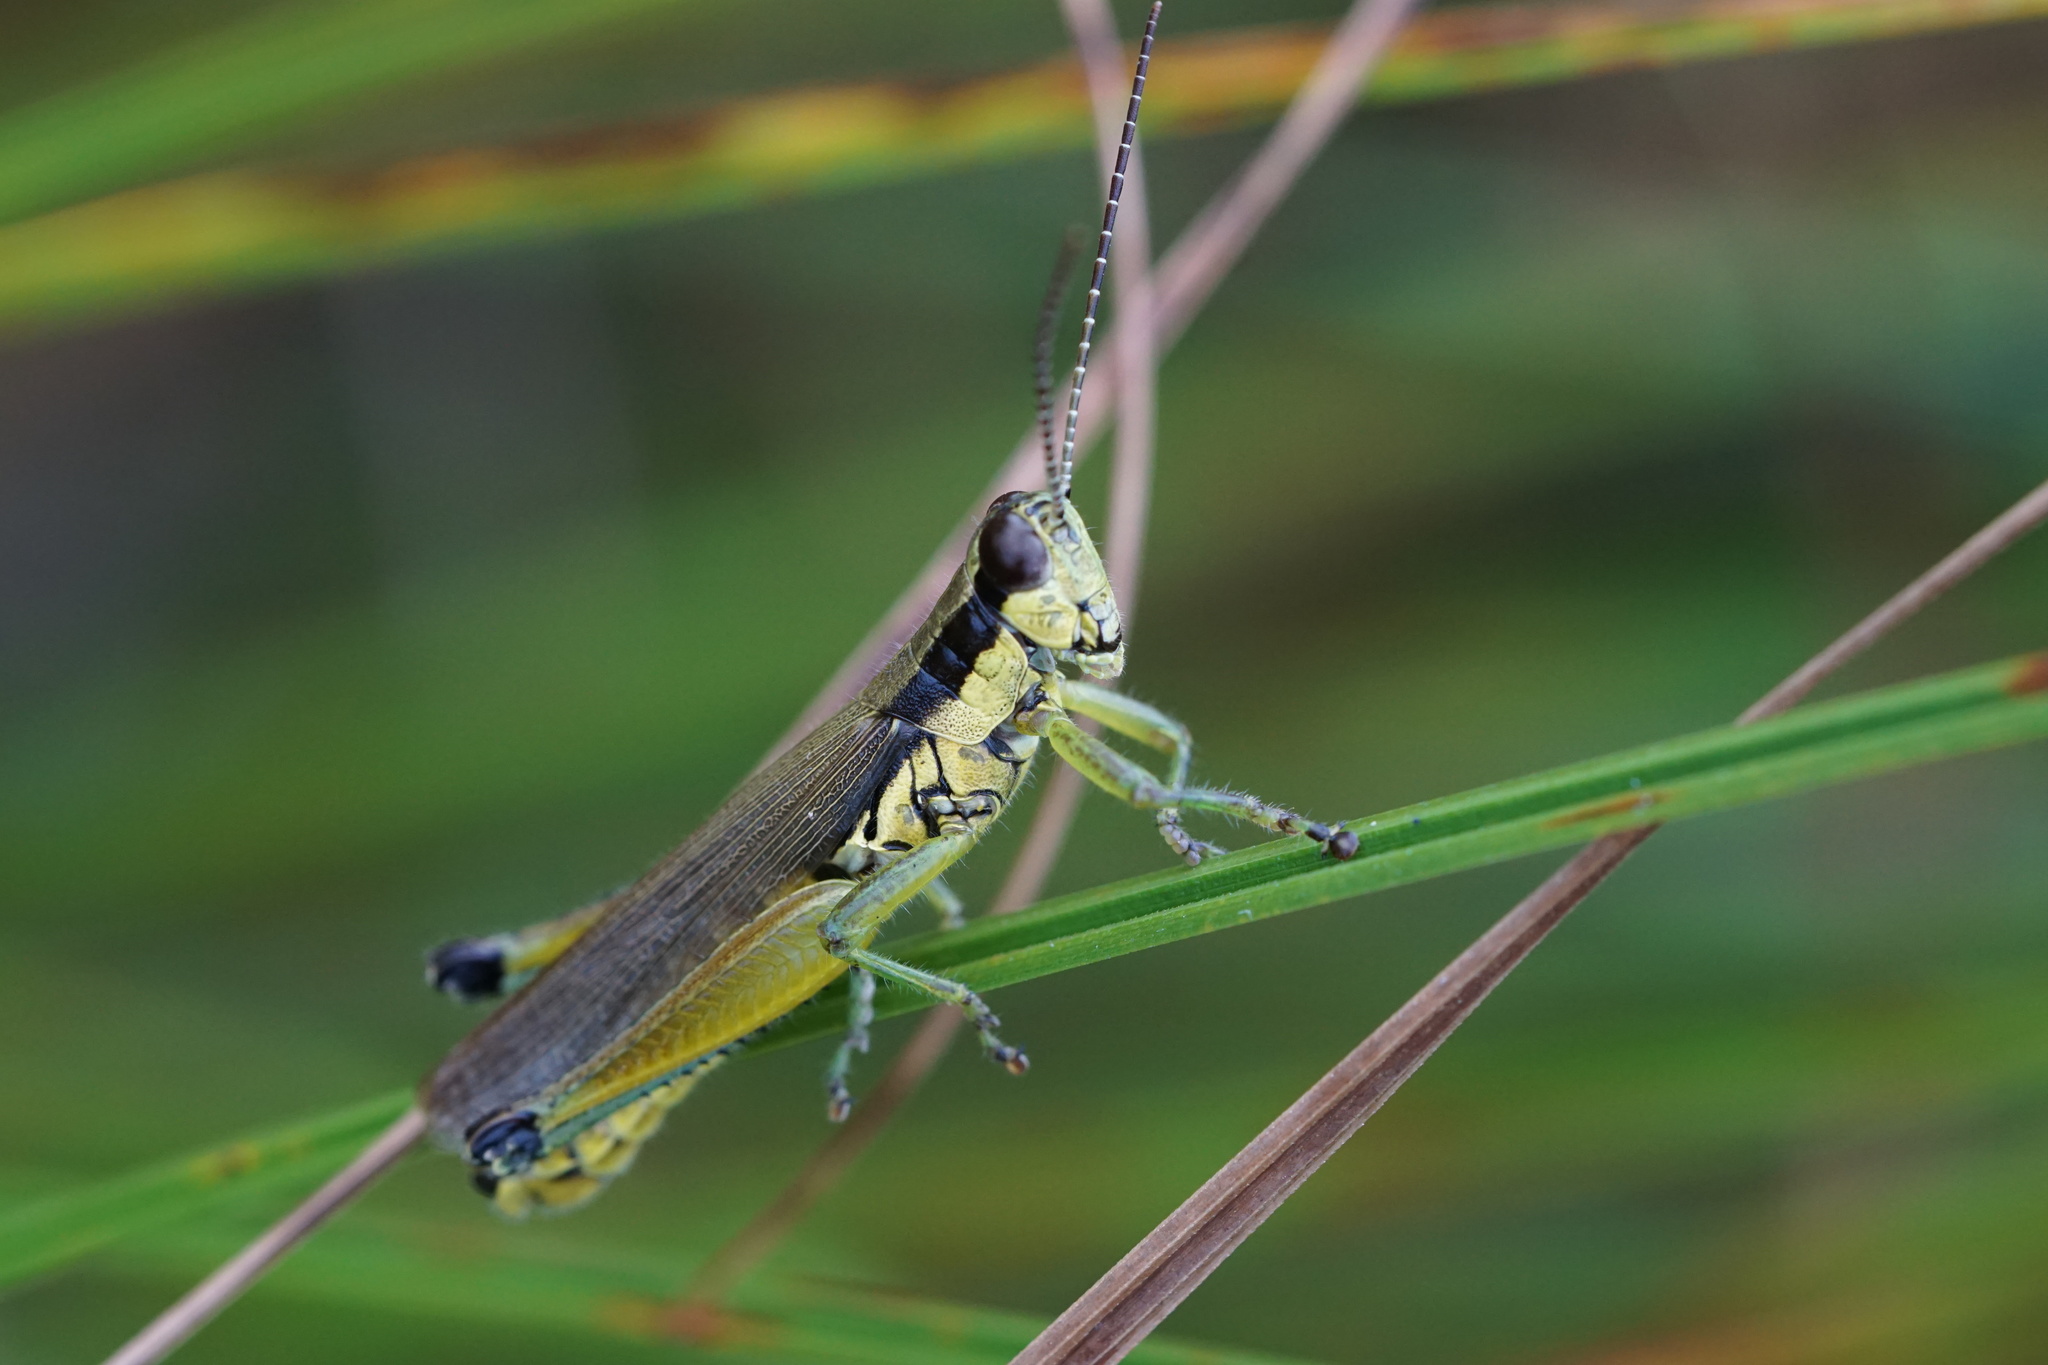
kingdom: Animalia
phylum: Arthropoda
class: Insecta
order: Orthoptera
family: Acrididae
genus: Paroxya
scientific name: Paroxya clavuligera
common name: Olive-green swamp grasshopper
